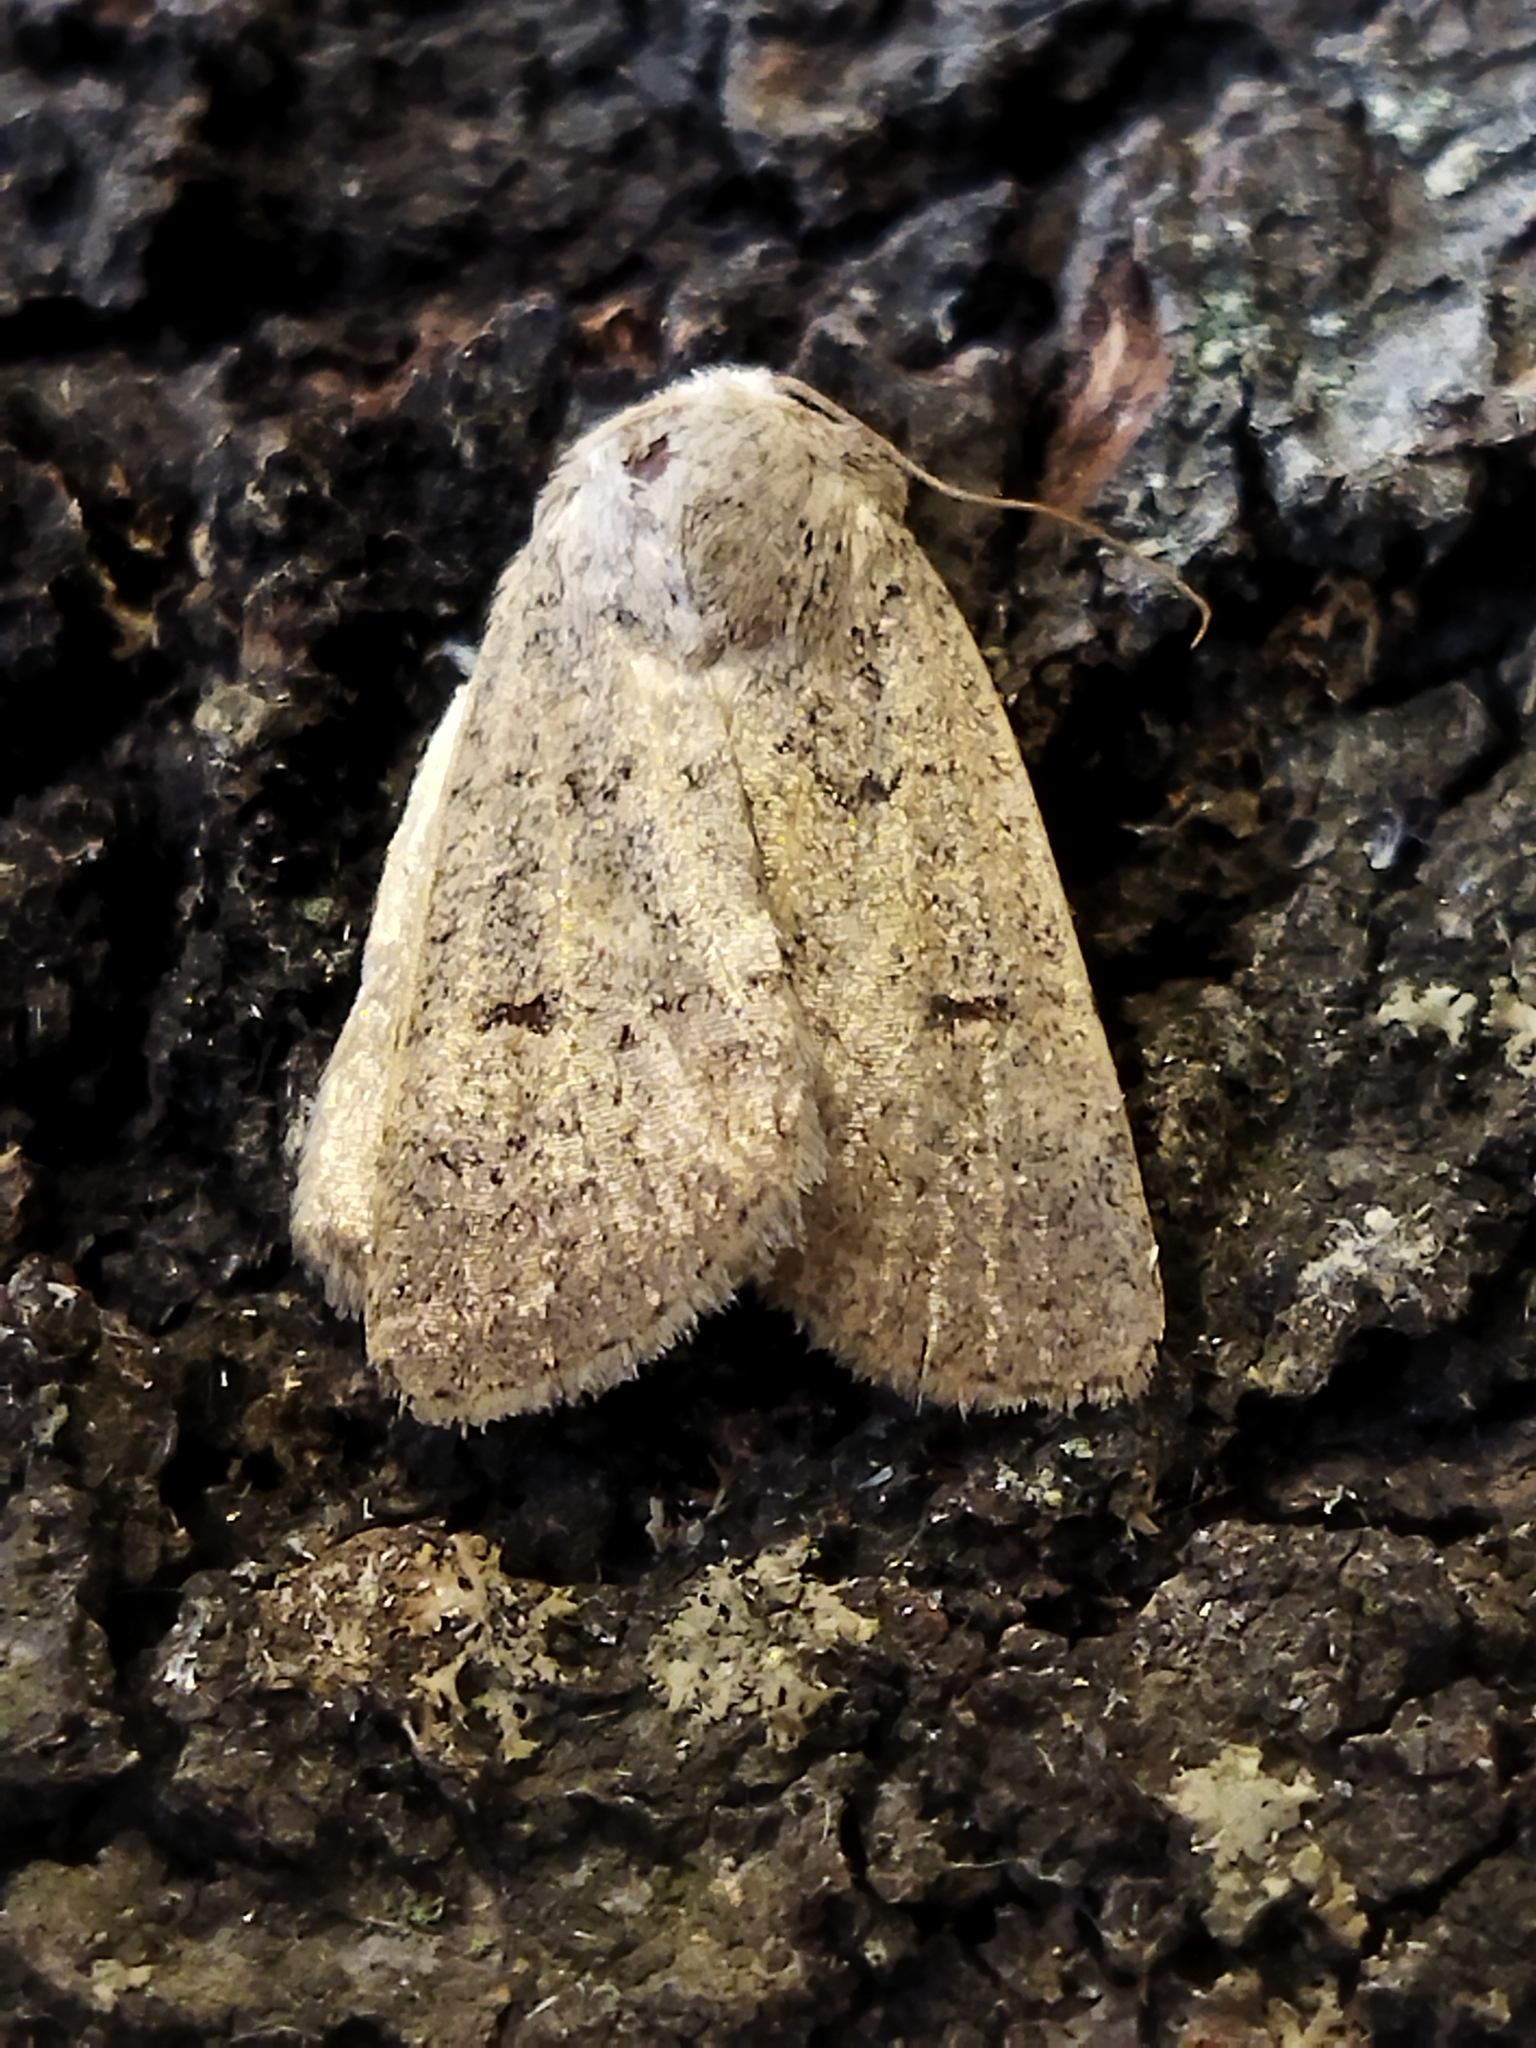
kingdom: Animalia
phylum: Arthropoda
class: Insecta
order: Lepidoptera
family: Noctuidae
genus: Caradrina
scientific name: Caradrina aspersa
